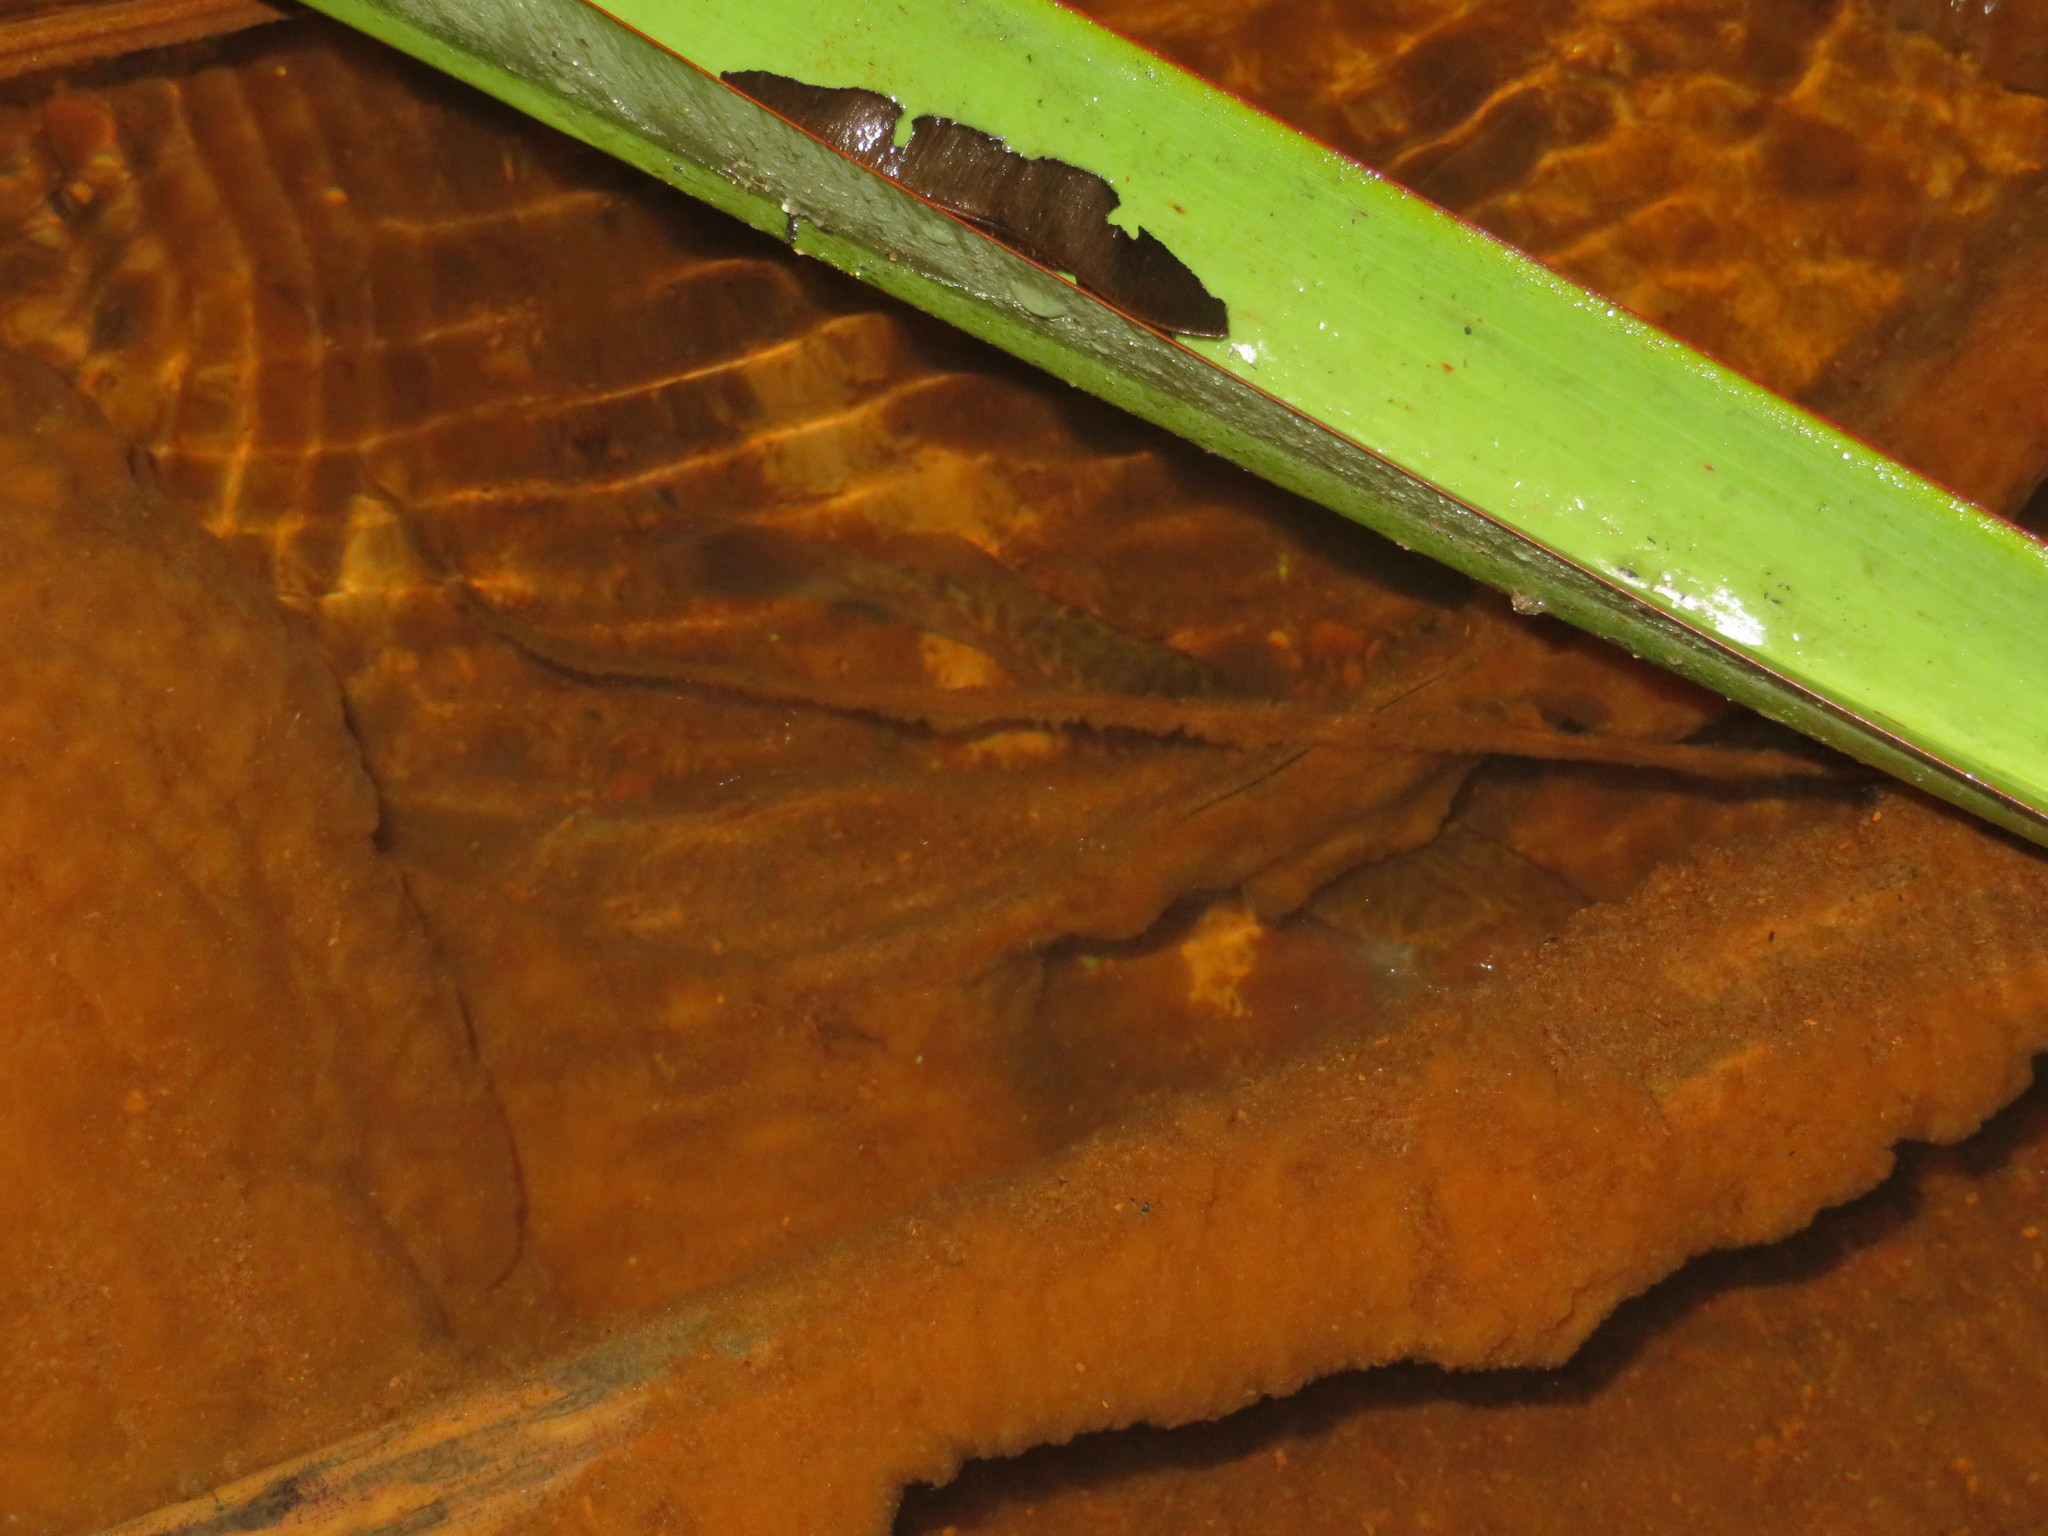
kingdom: Animalia
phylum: Chordata
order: Osmeriformes
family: Galaxiidae
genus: Galaxias
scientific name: Galaxias fasciatus
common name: Banded kokopu
